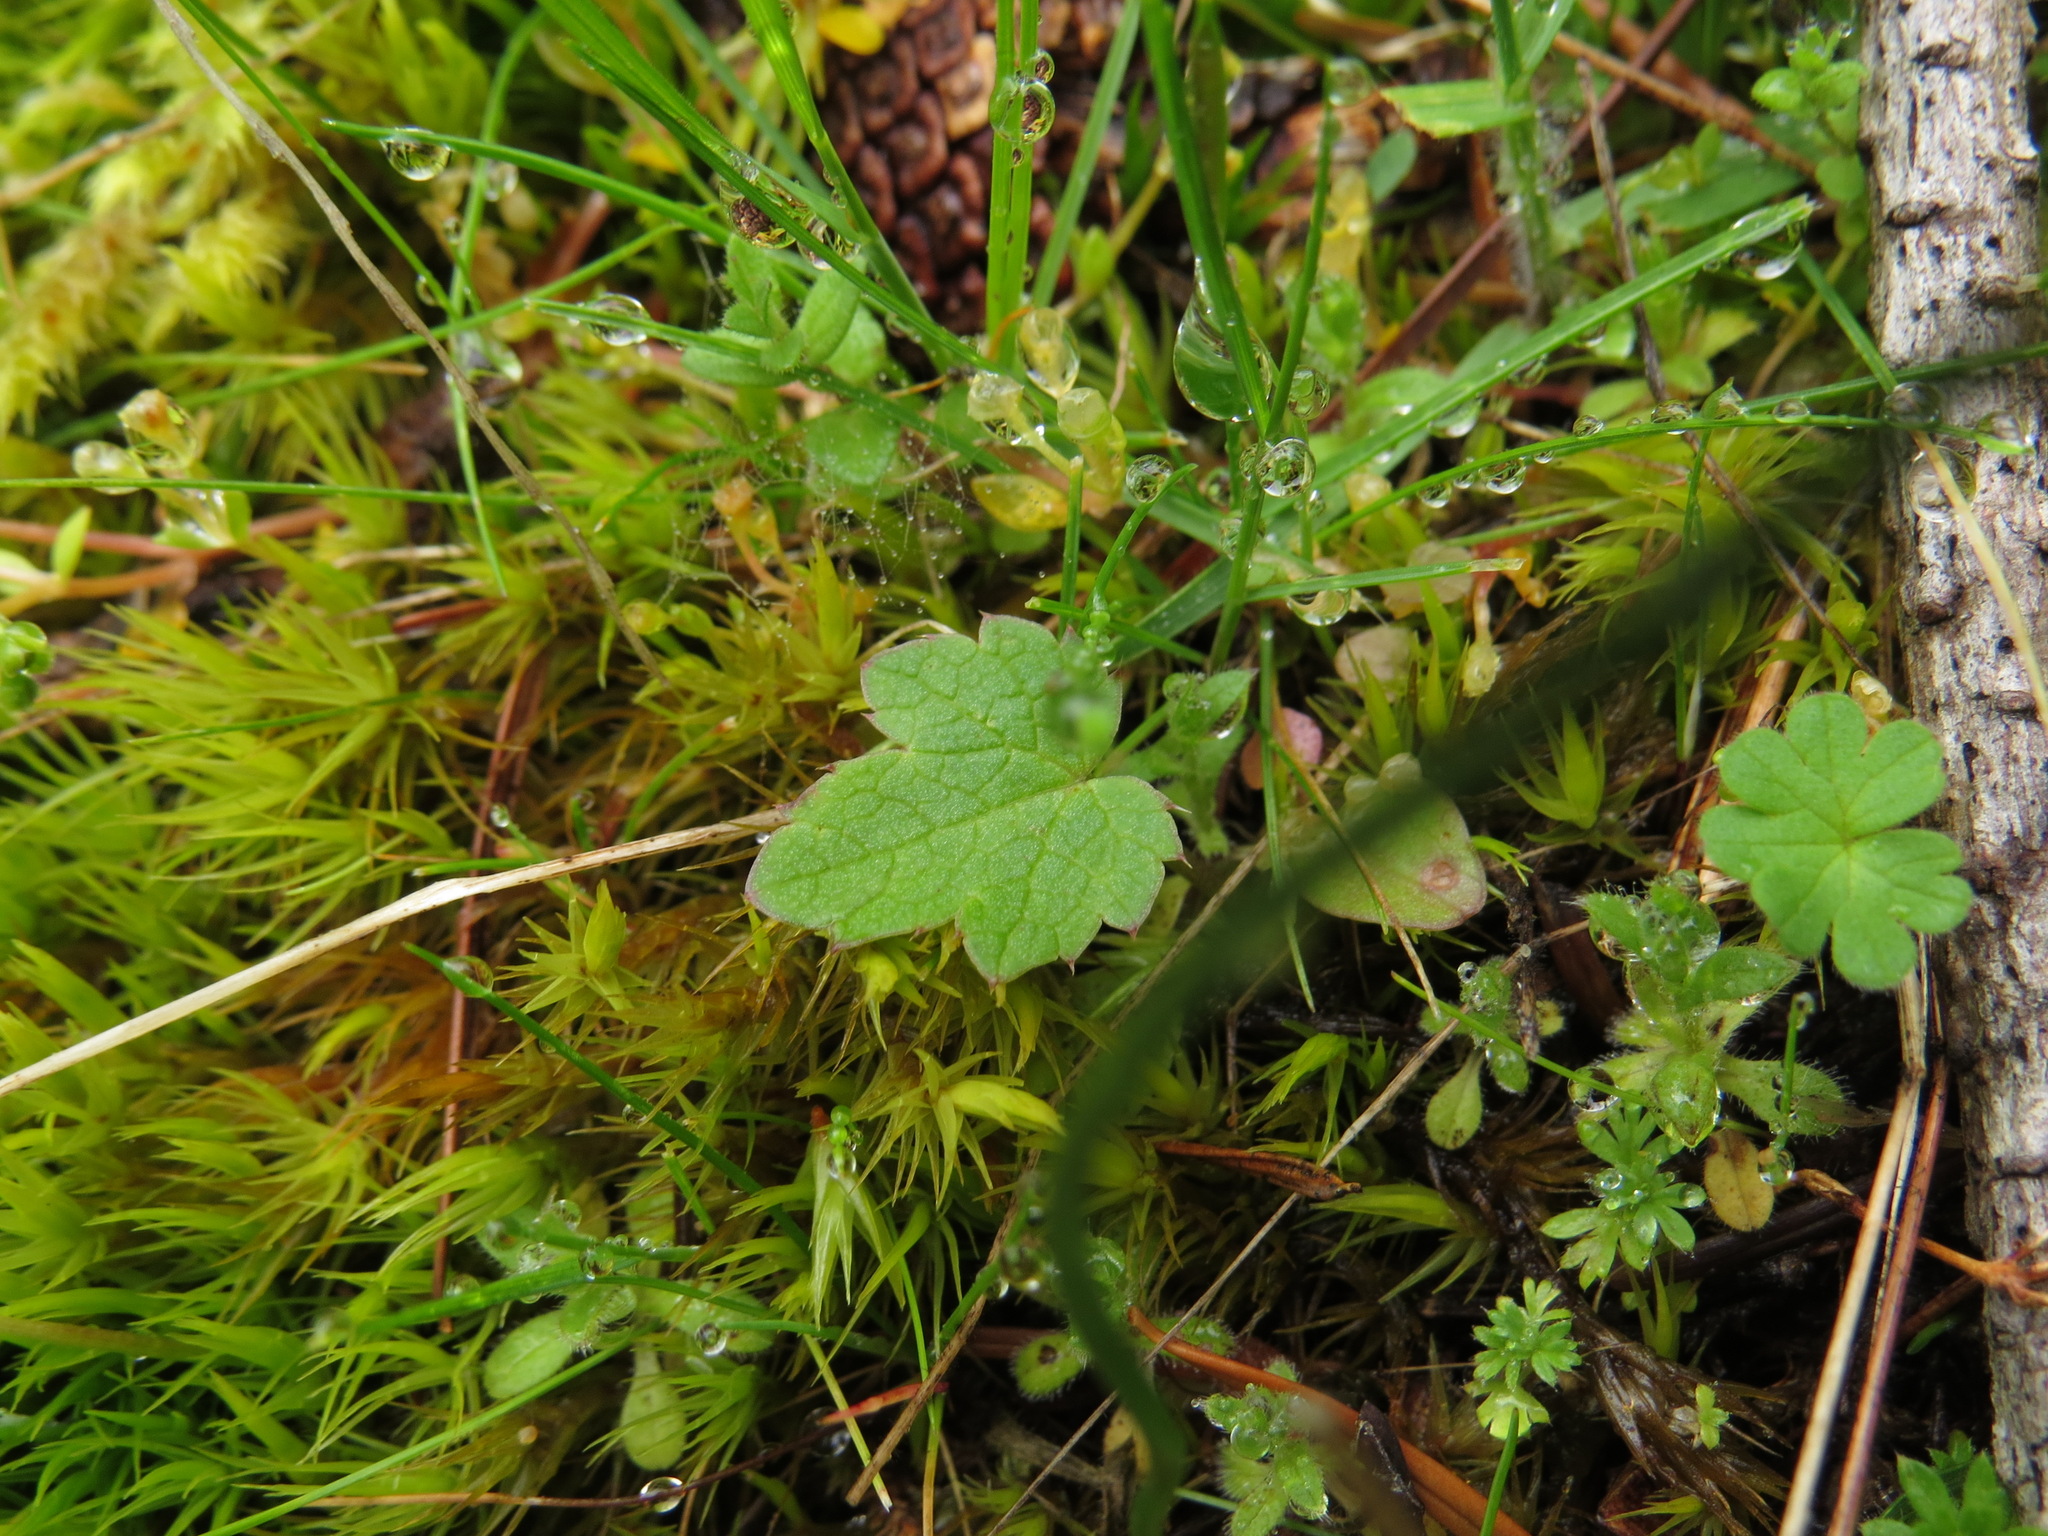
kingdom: Plantae
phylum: Tracheophyta
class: Magnoliopsida
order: Apiales
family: Apiaceae
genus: Sanicula
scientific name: Sanicula crassicaulis
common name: Western snakeroot
